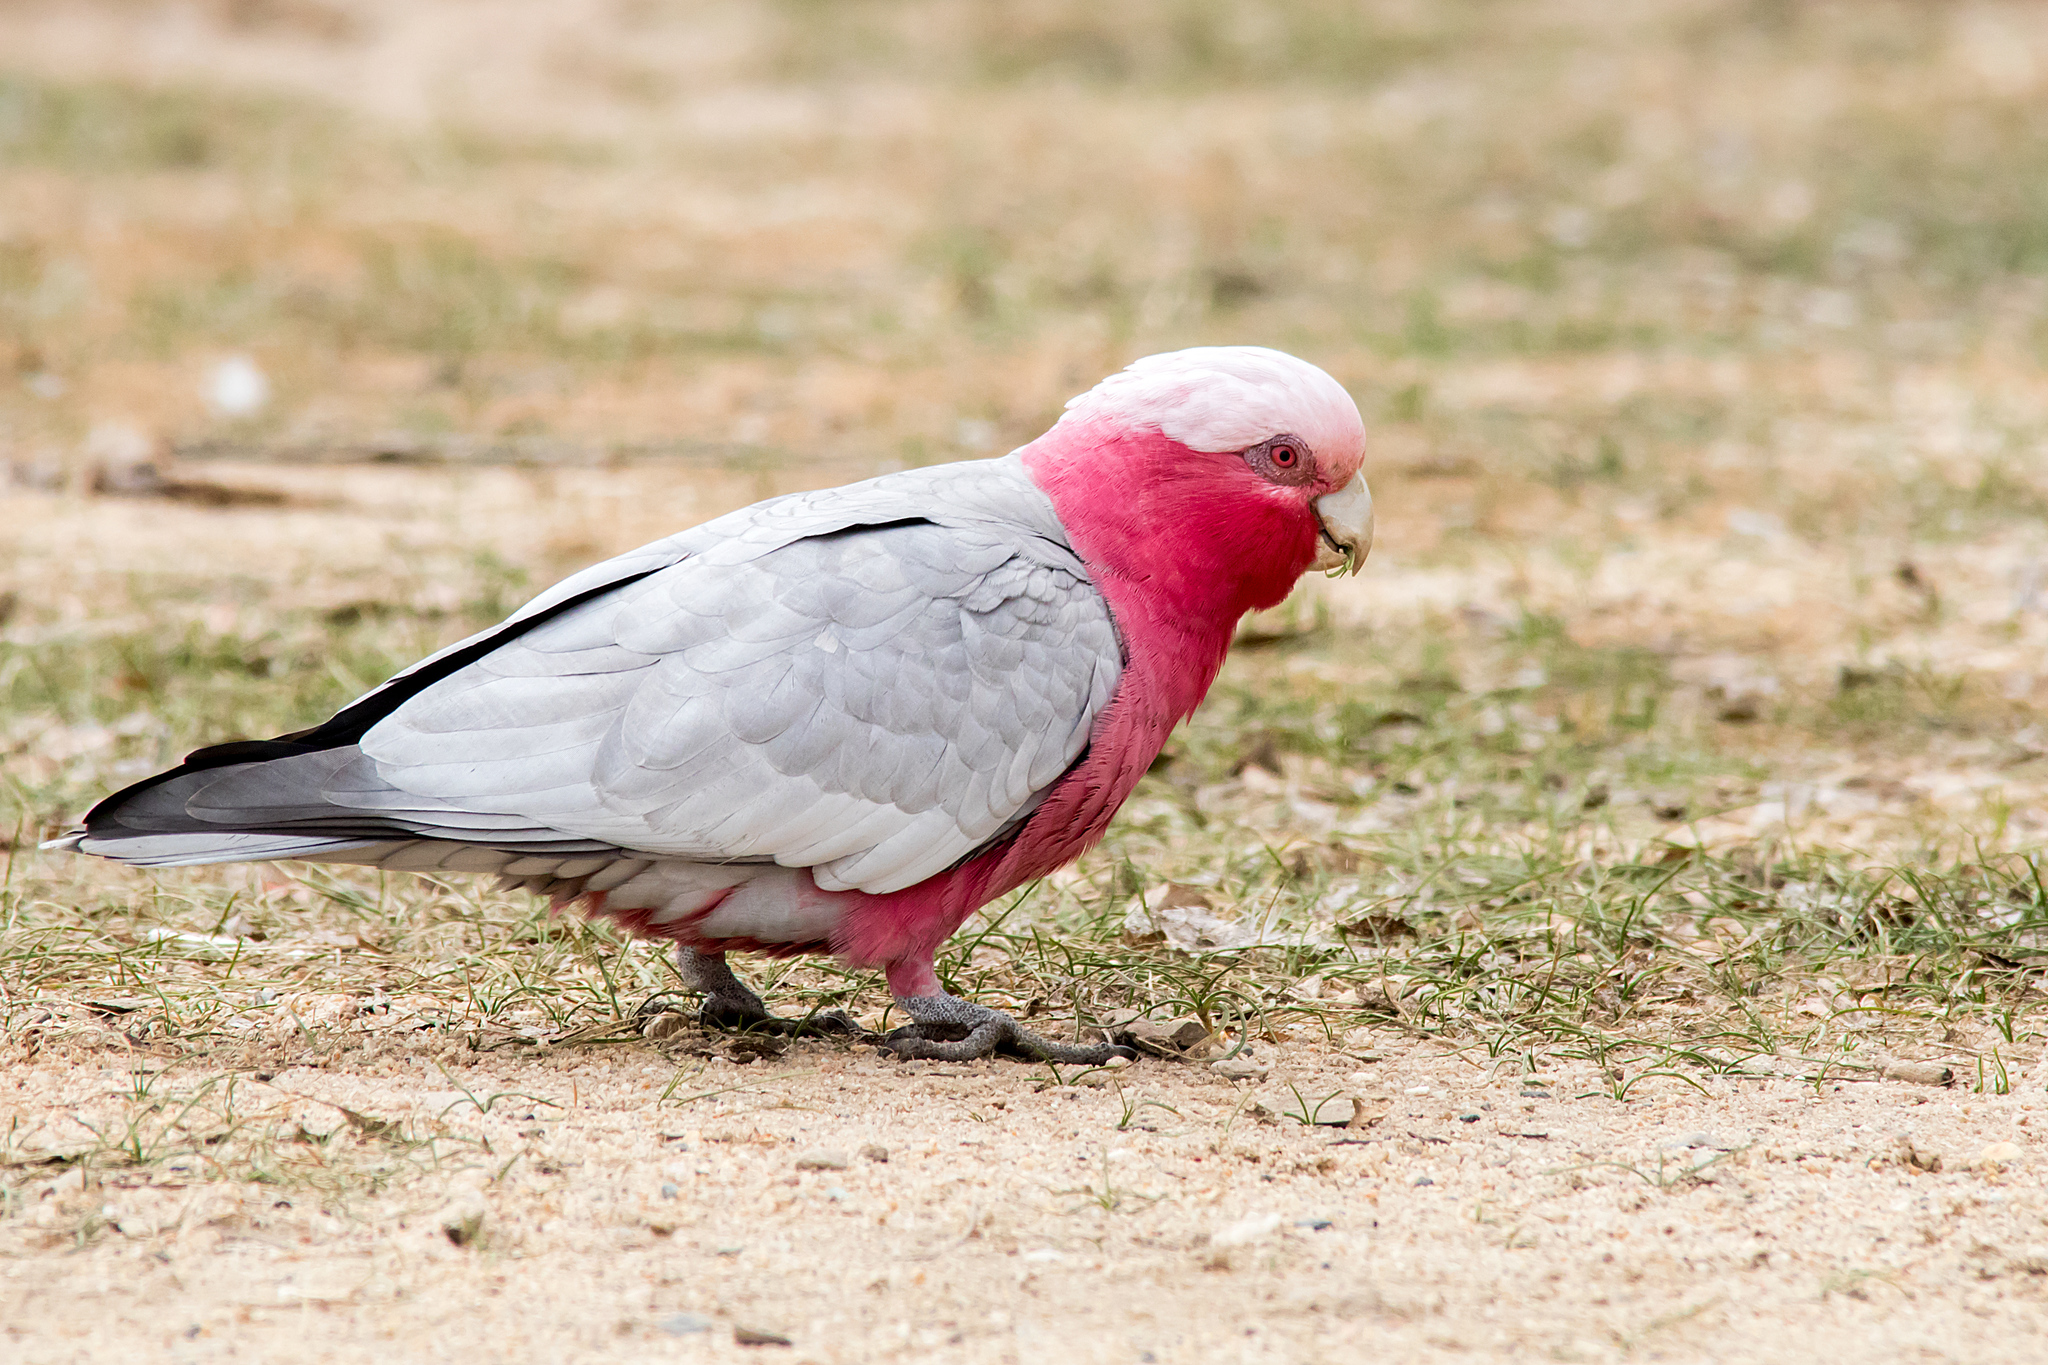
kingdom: Animalia
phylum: Chordata
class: Aves
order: Psittaciformes
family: Psittacidae
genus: Eolophus
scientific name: Eolophus roseicapilla
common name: Galah
